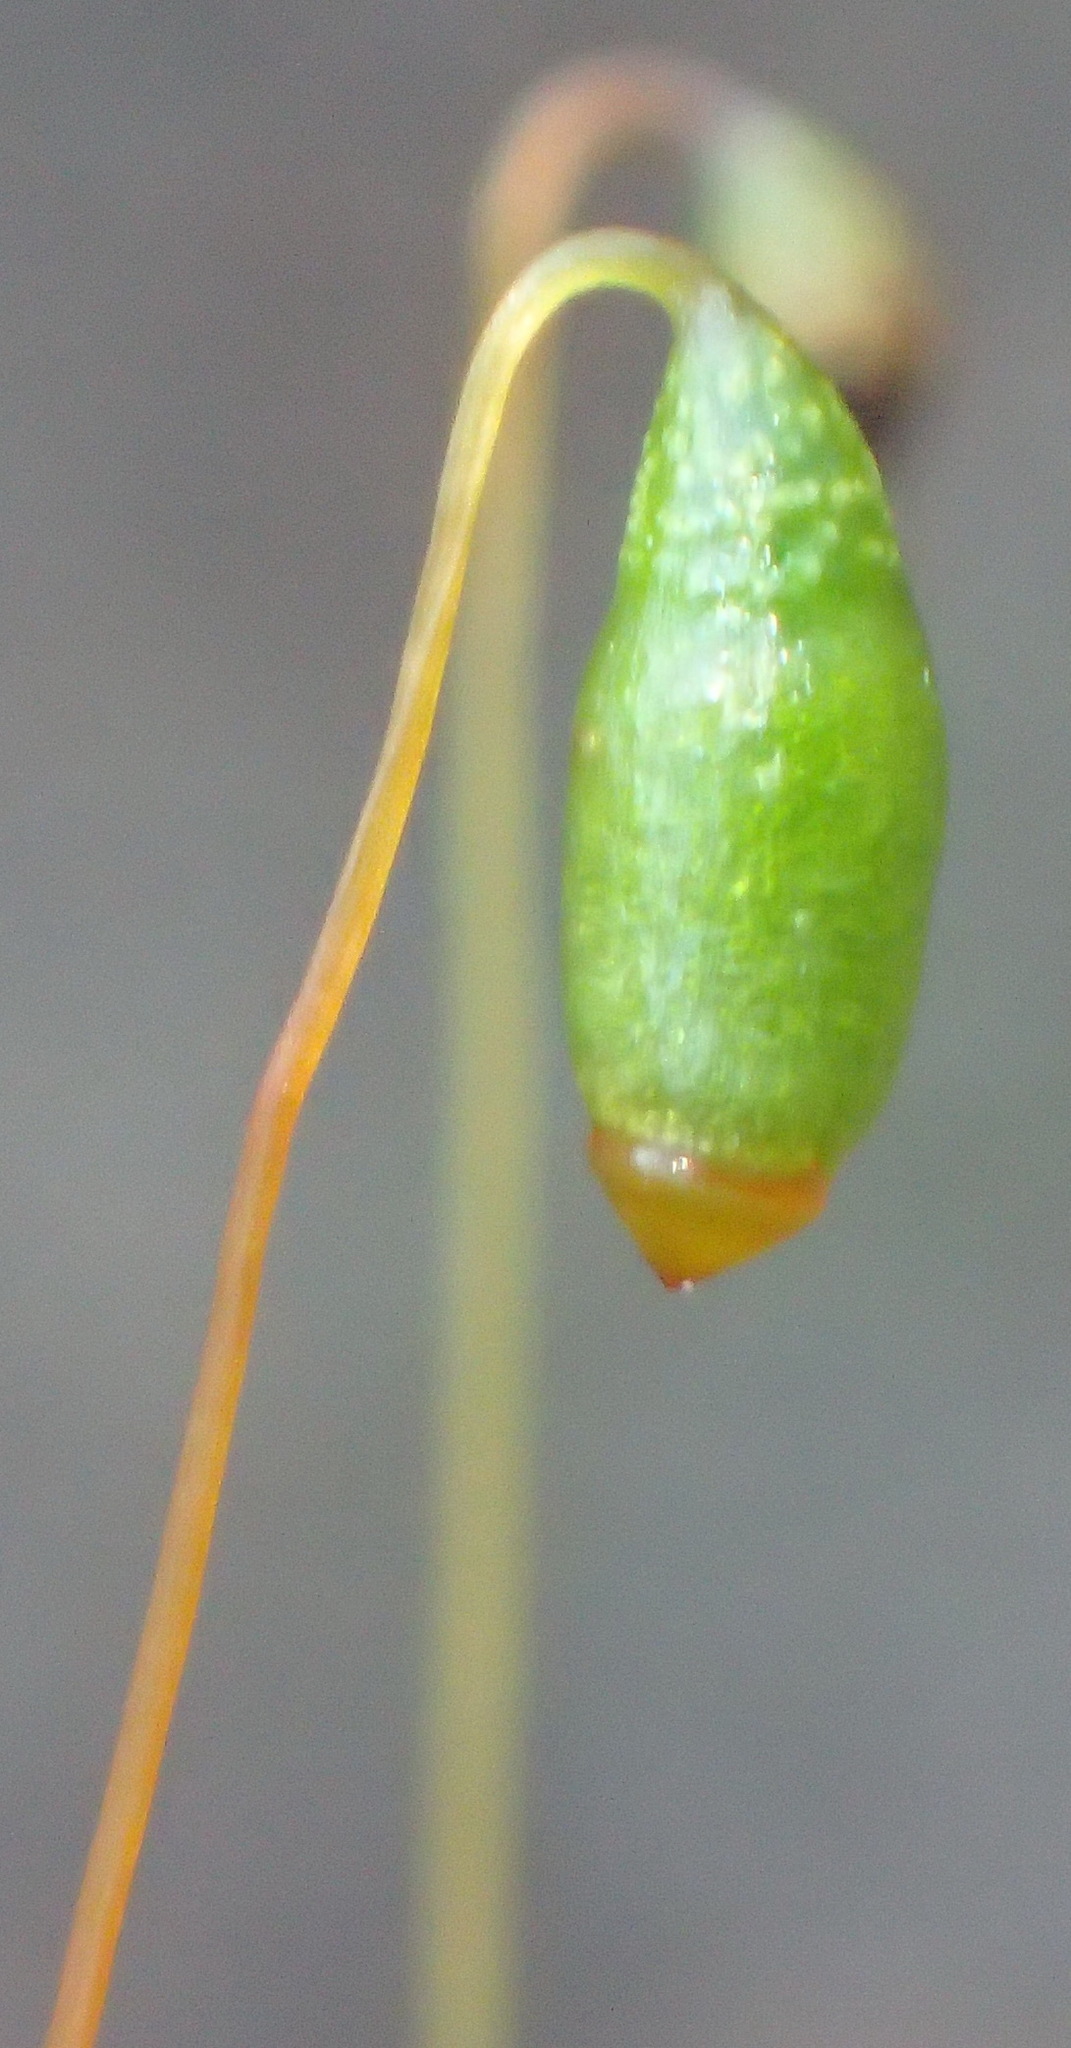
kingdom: Plantae
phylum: Bryophyta
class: Bryopsida
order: Bryales
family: Bryaceae
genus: Rosulabryum
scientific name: Rosulabryum canariense
